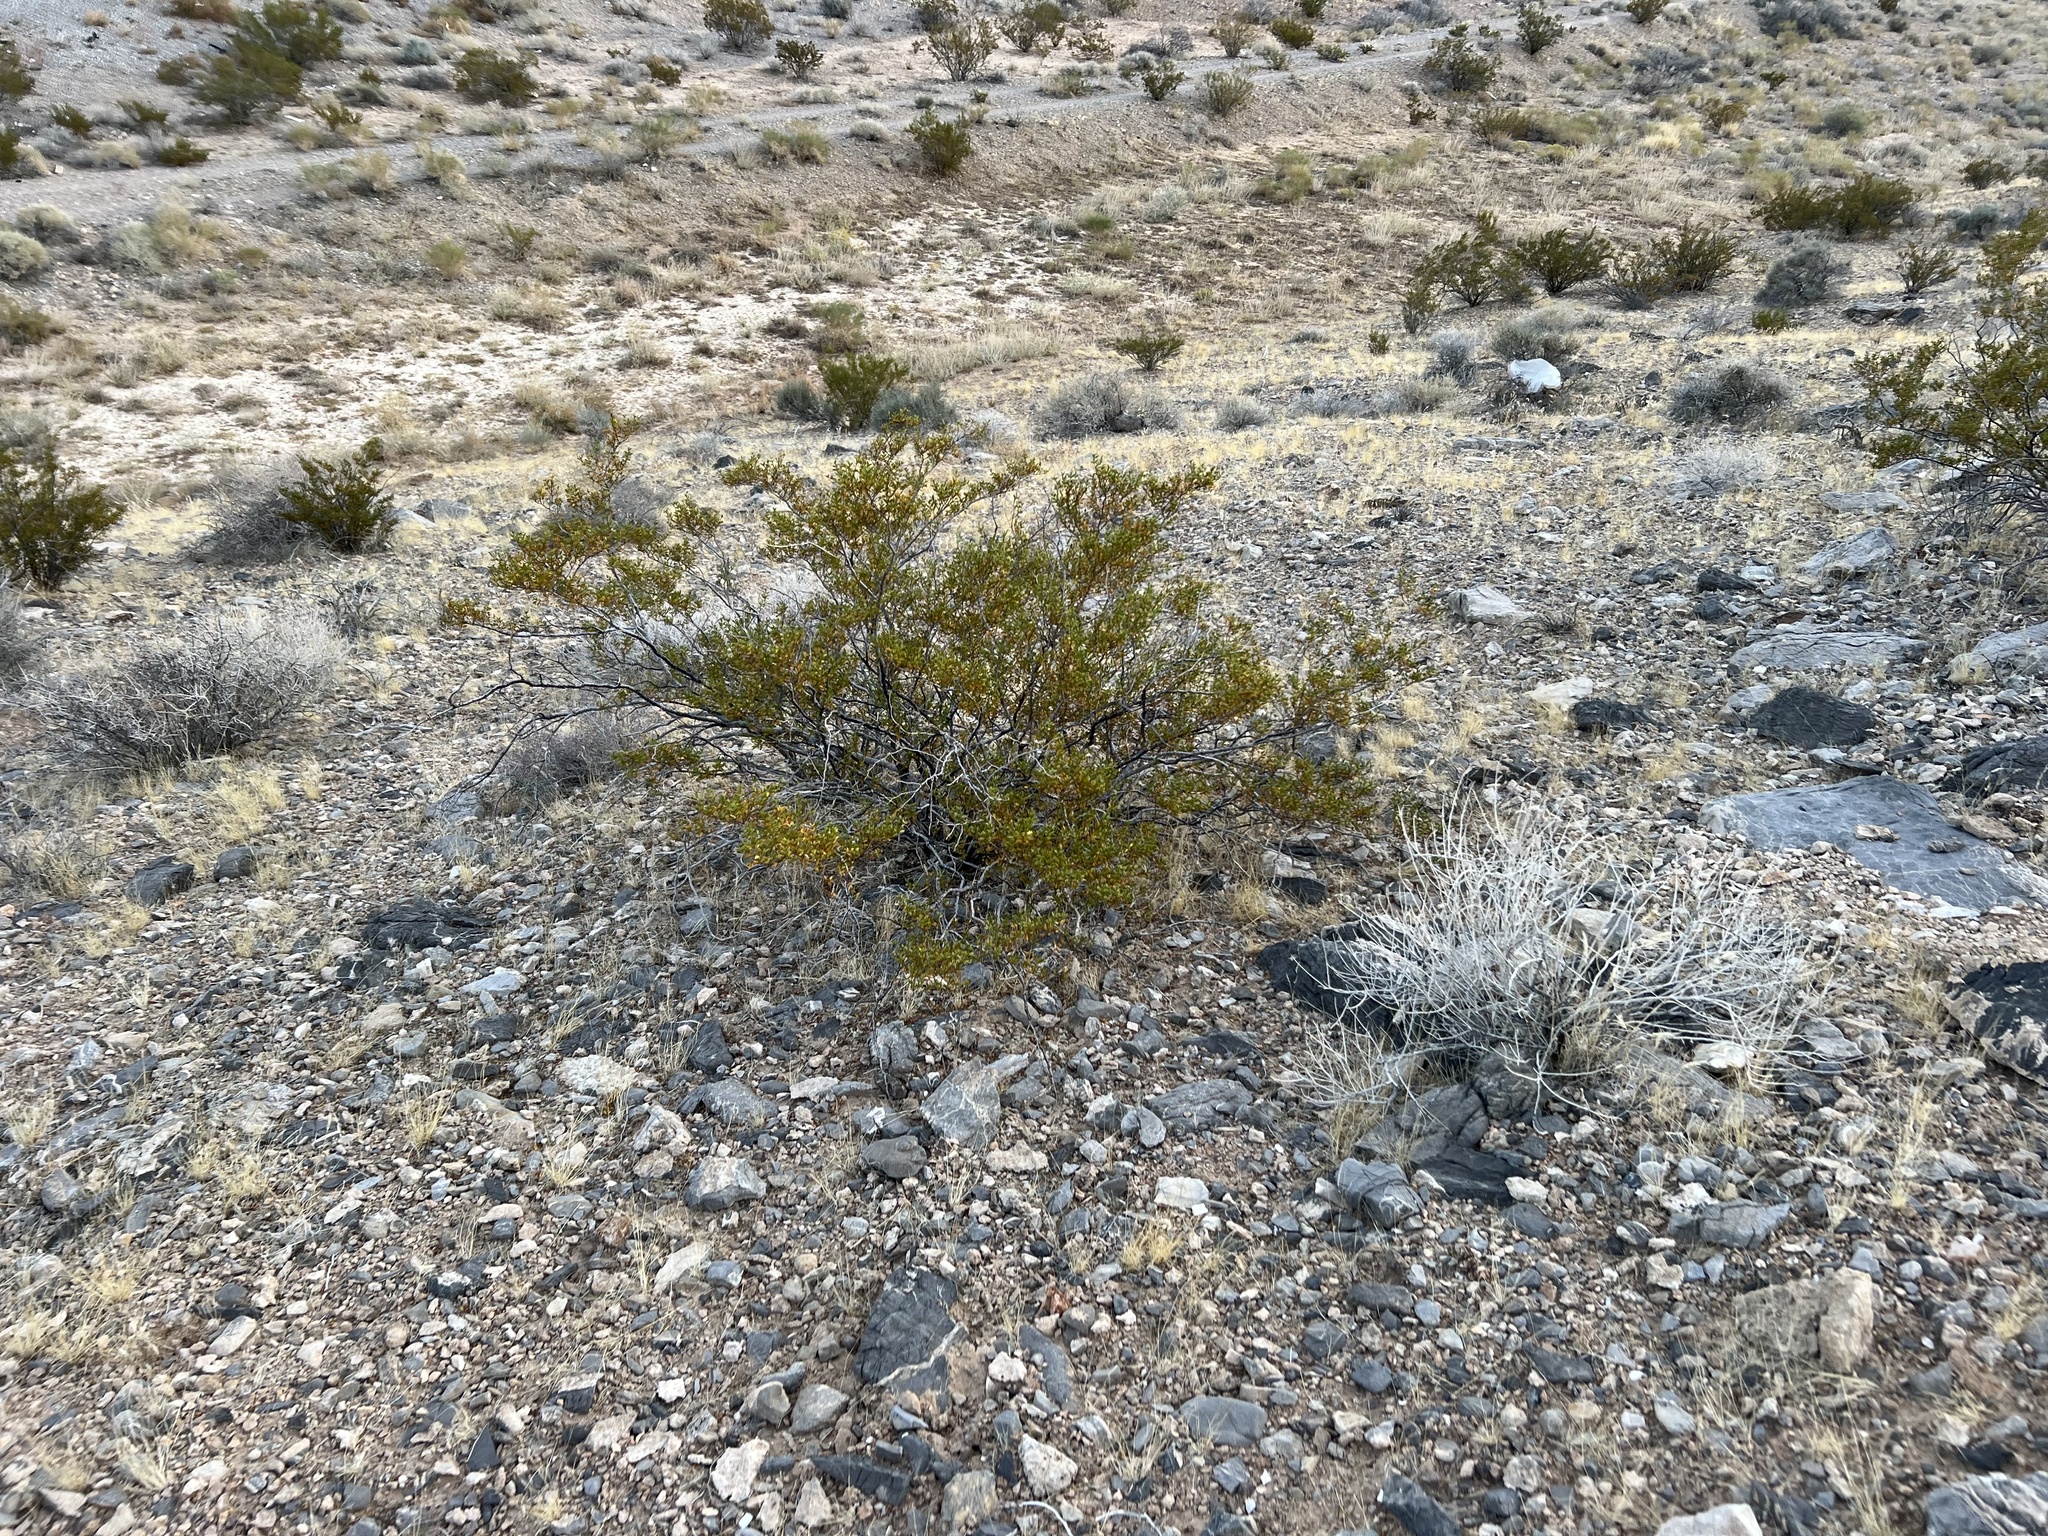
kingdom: Plantae
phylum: Tracheophyta
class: Magnoliopsida
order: Zygophyllales
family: Zygophyllaceae
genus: Larrea
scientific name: Larrea tridentata
